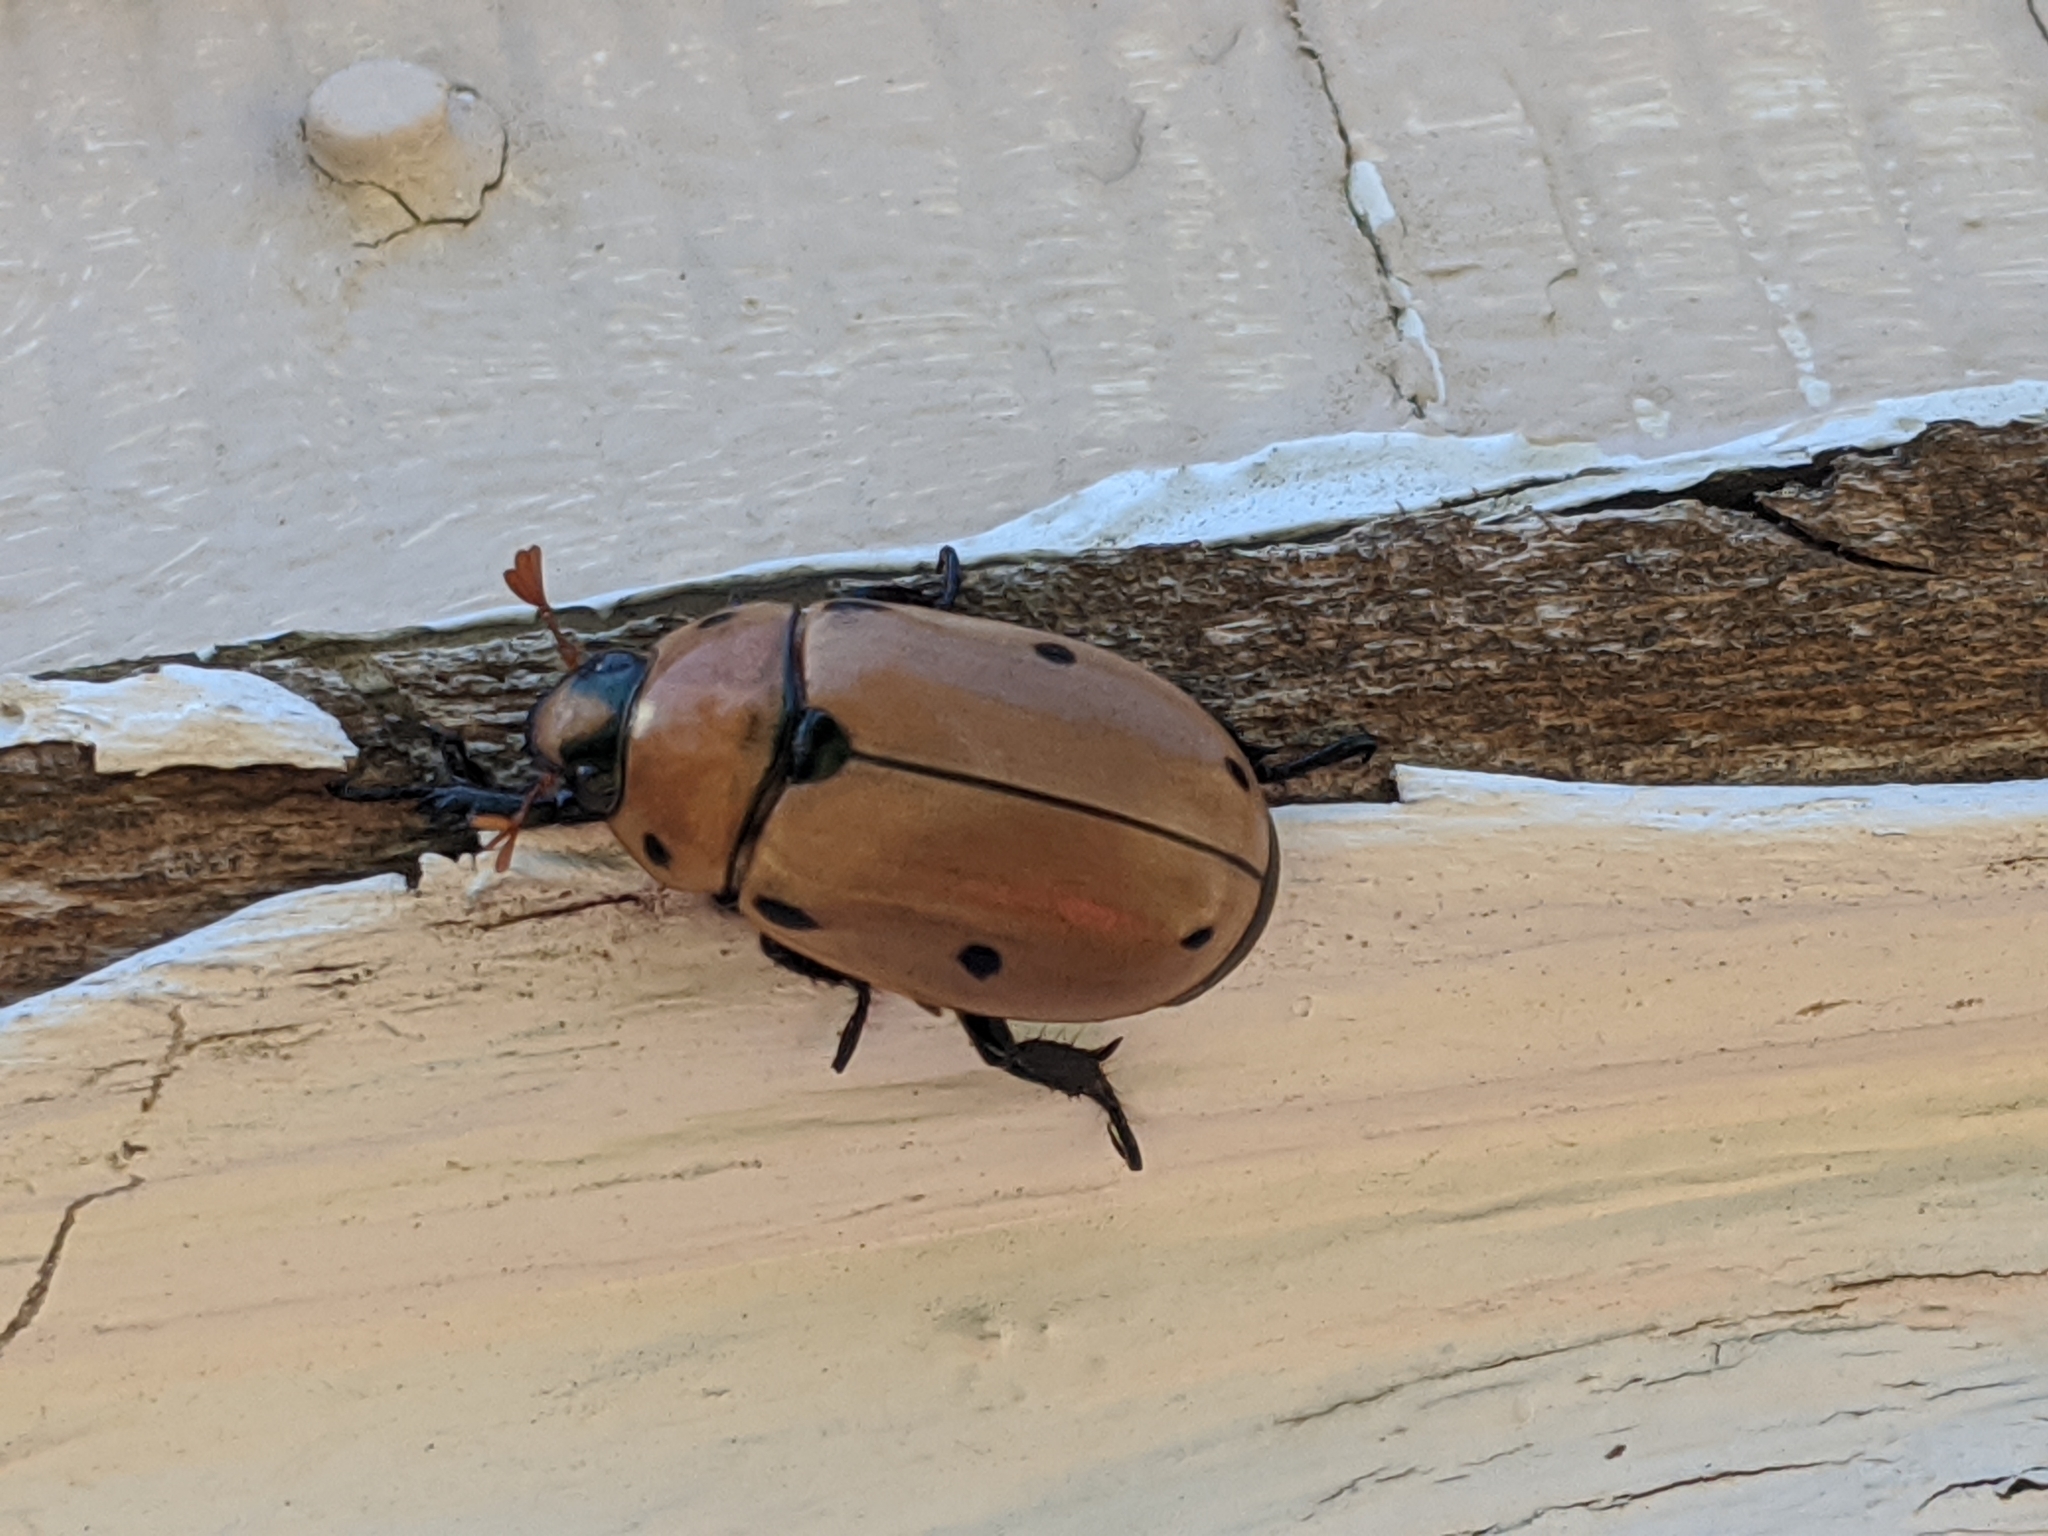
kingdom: Animalia
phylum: Arthropoda
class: Insecta
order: Coleoptera
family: Scarabaeidae
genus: Pelidnota
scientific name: Pelidnota punctata
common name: Grapevine beetle
